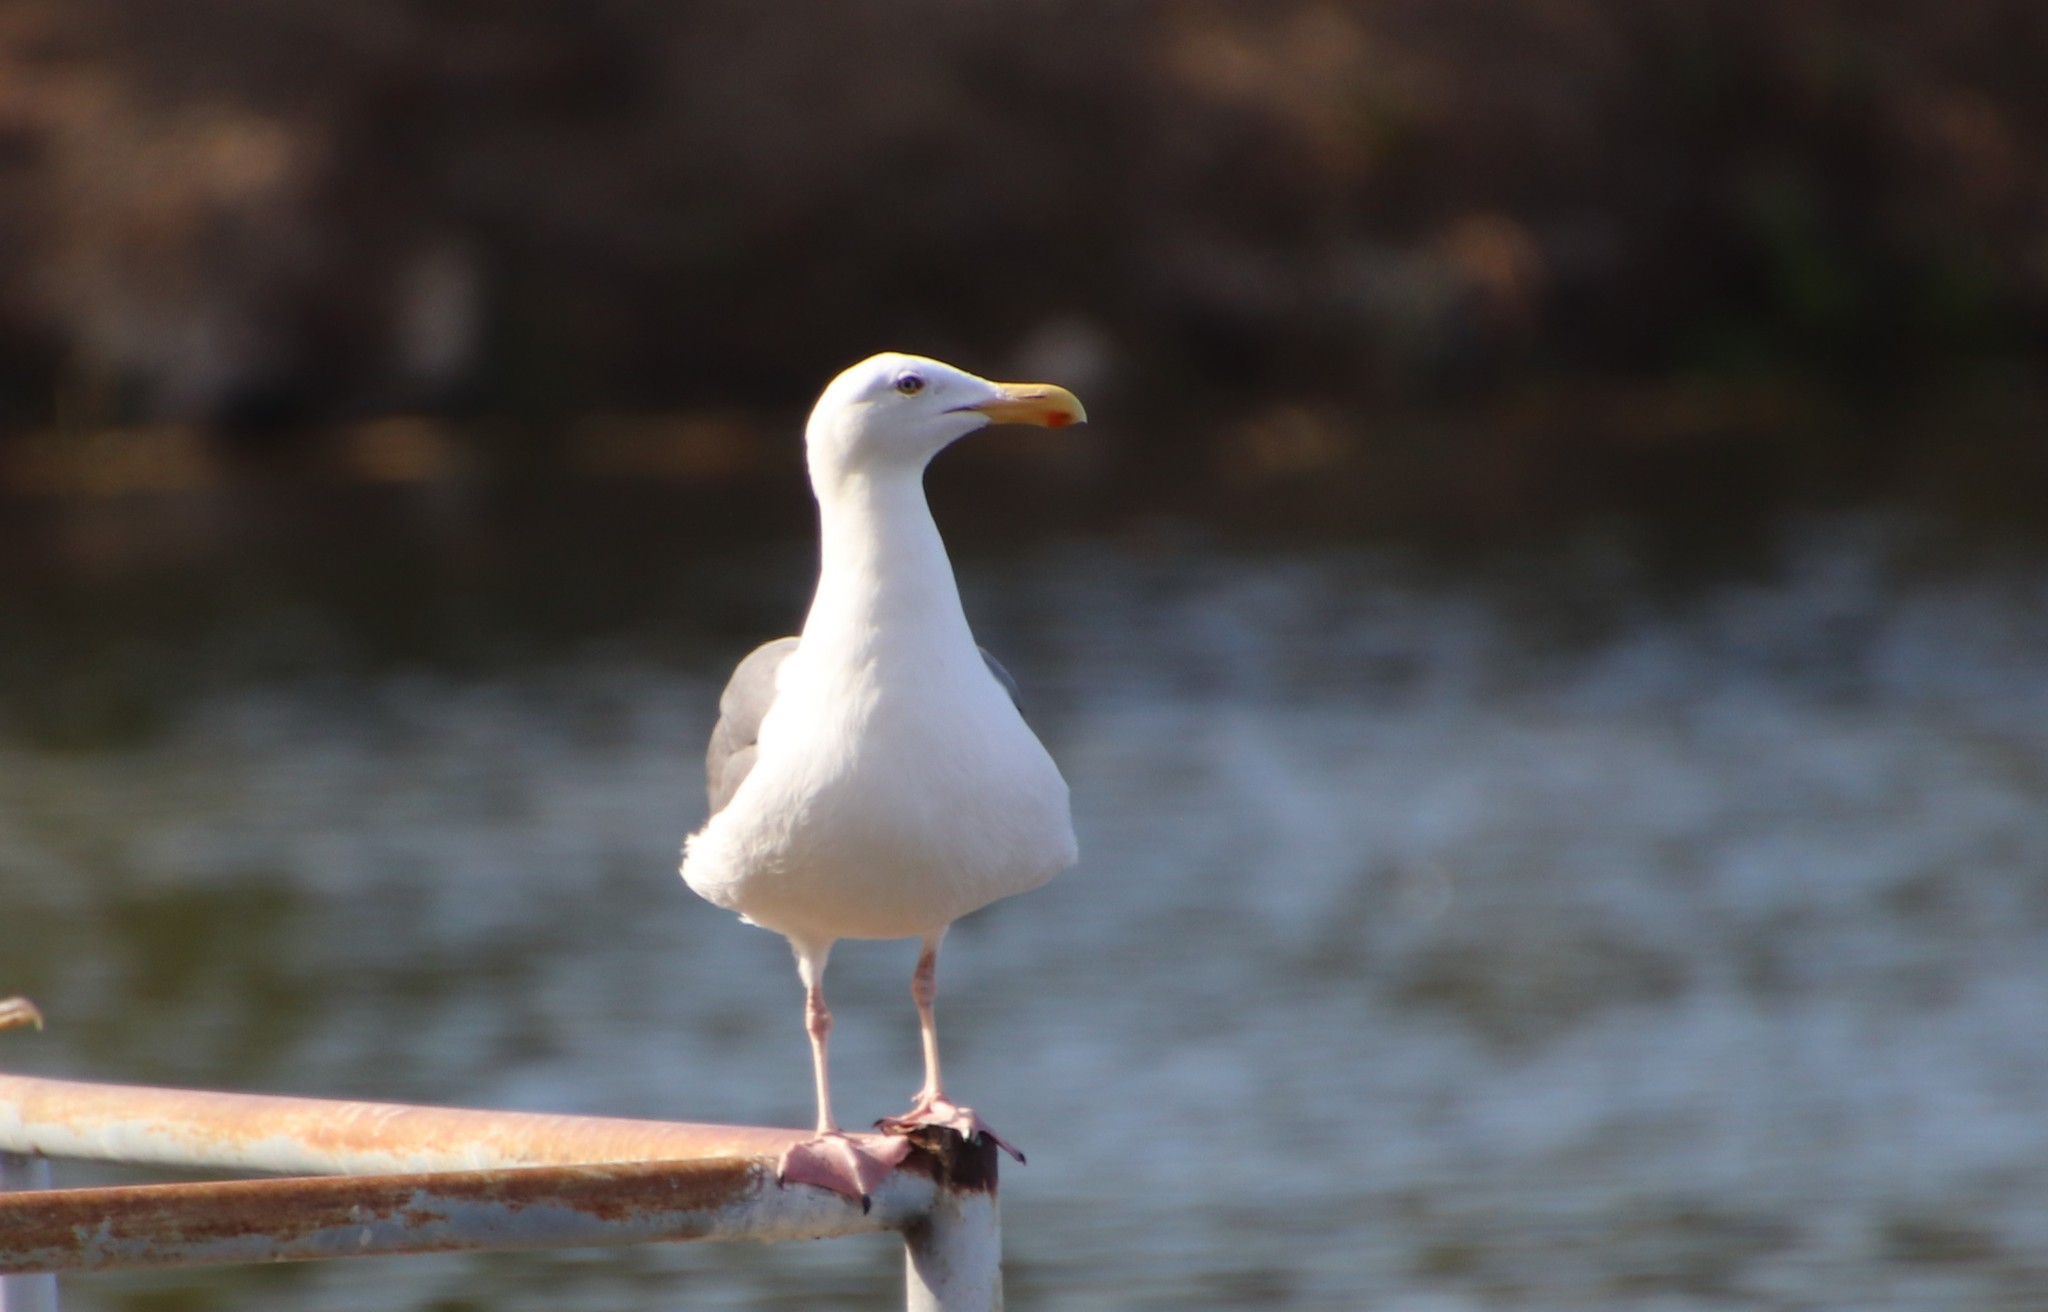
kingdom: Animalia
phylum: Chordata
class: Aves
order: Charadriiformes
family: Laridae
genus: Larus
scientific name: Larus occidentalis
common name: Western gull
